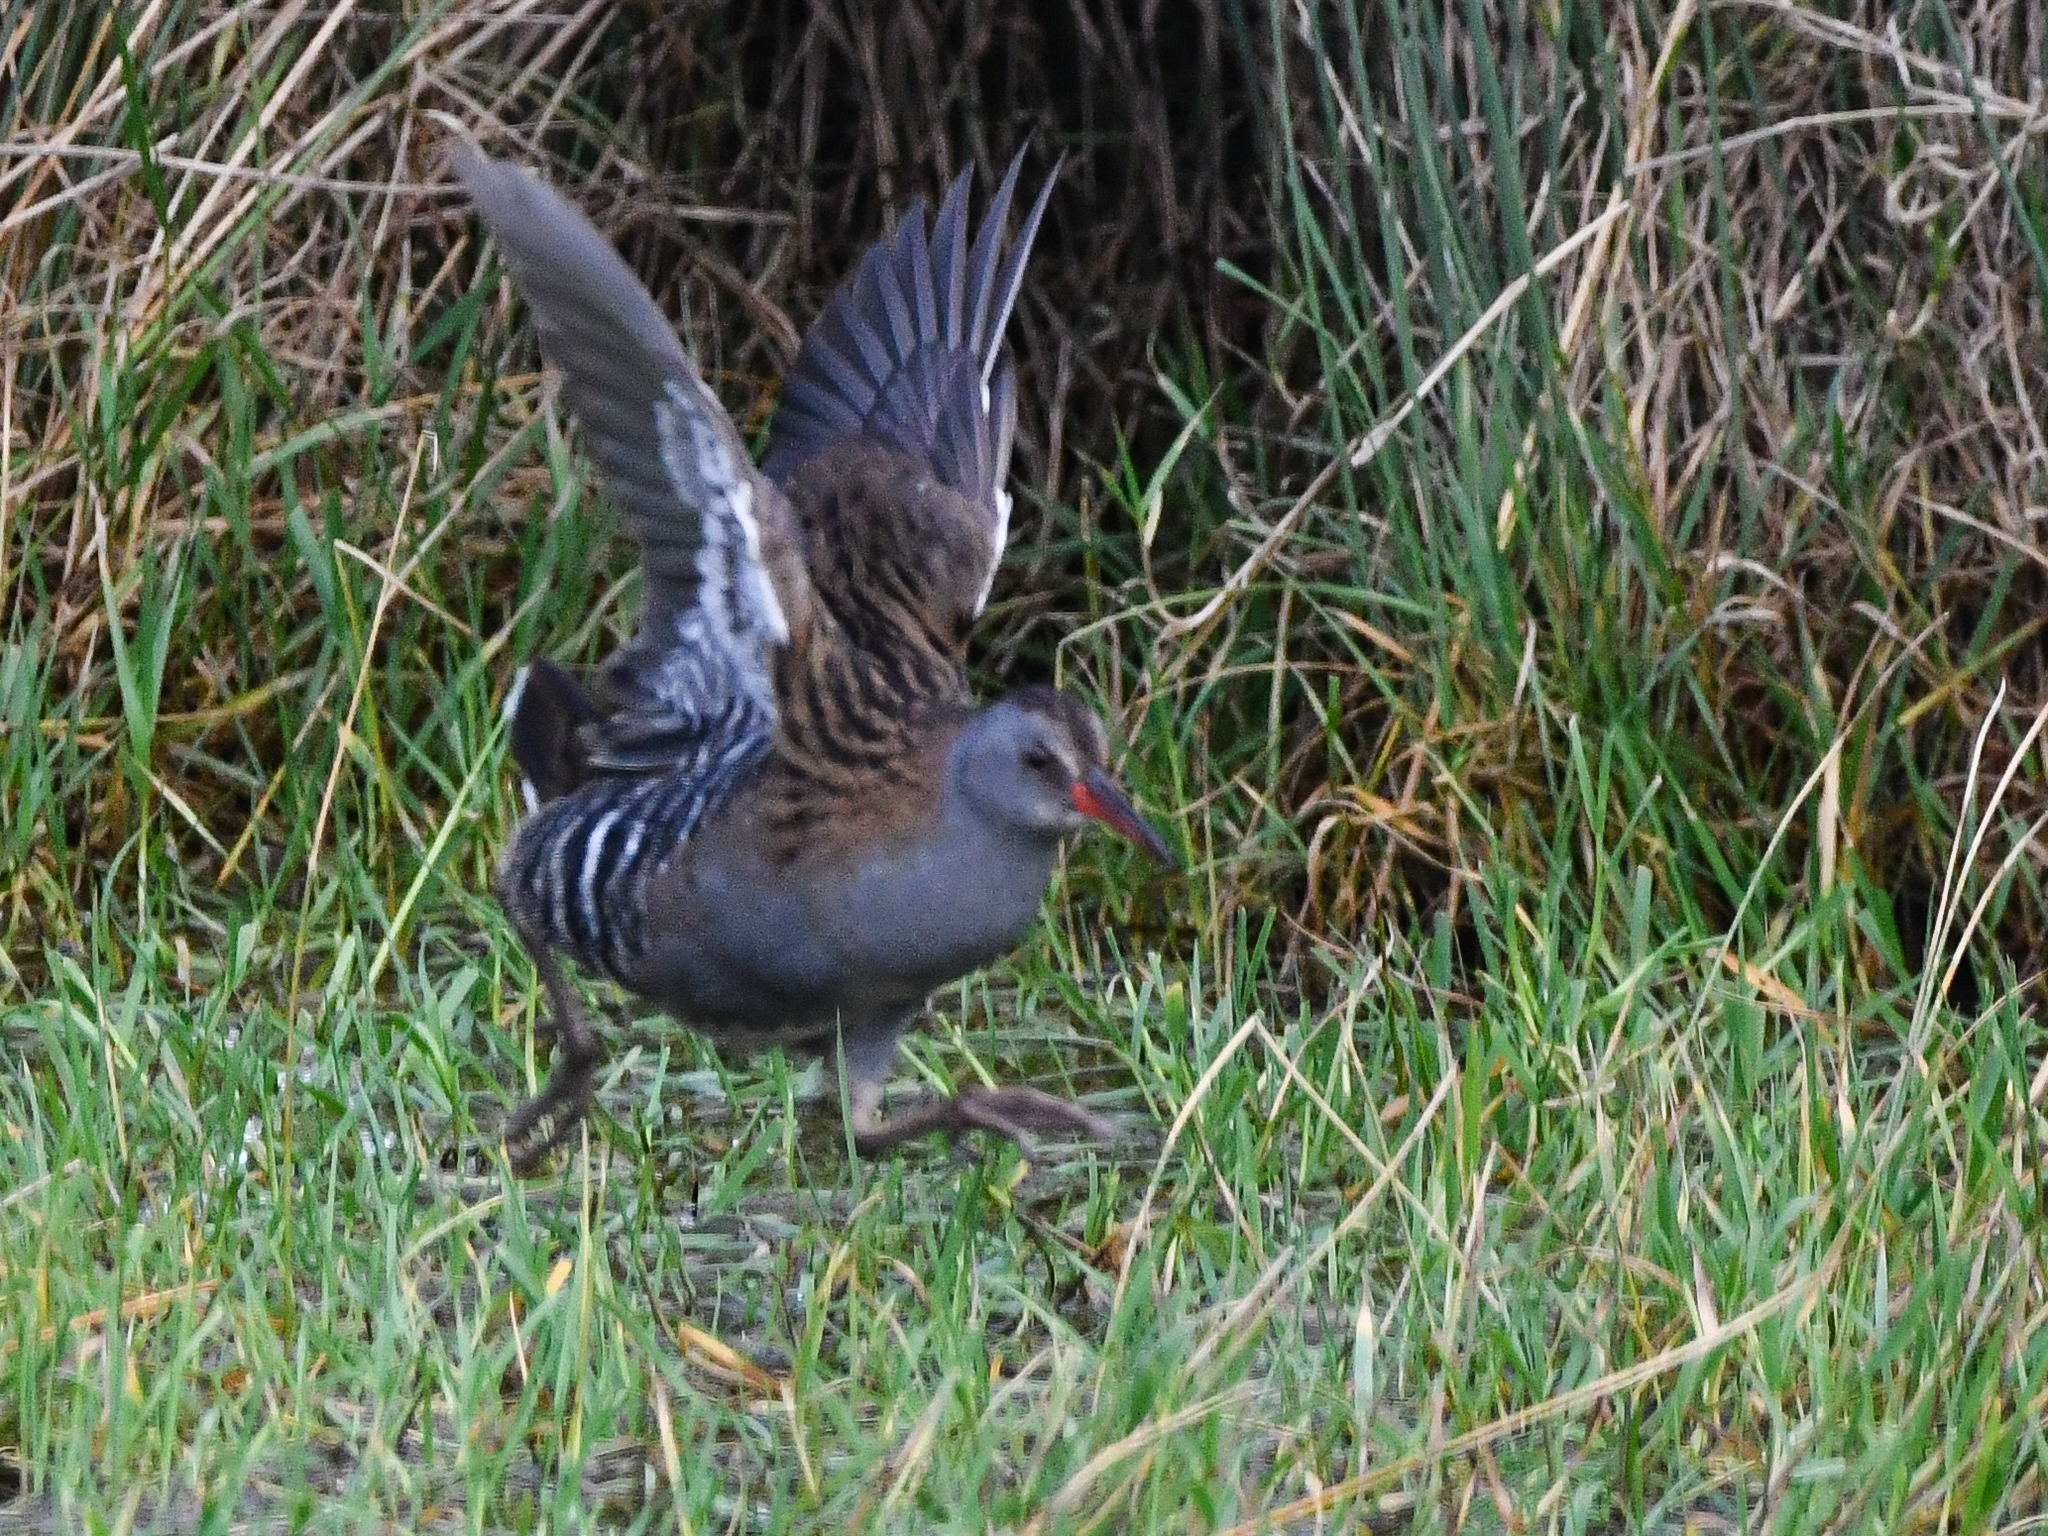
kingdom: Animalia
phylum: Chordata
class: Aves
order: Gruiformes
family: Rallidae
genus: Rallus
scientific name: Rallus aquaticus
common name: Water rail
